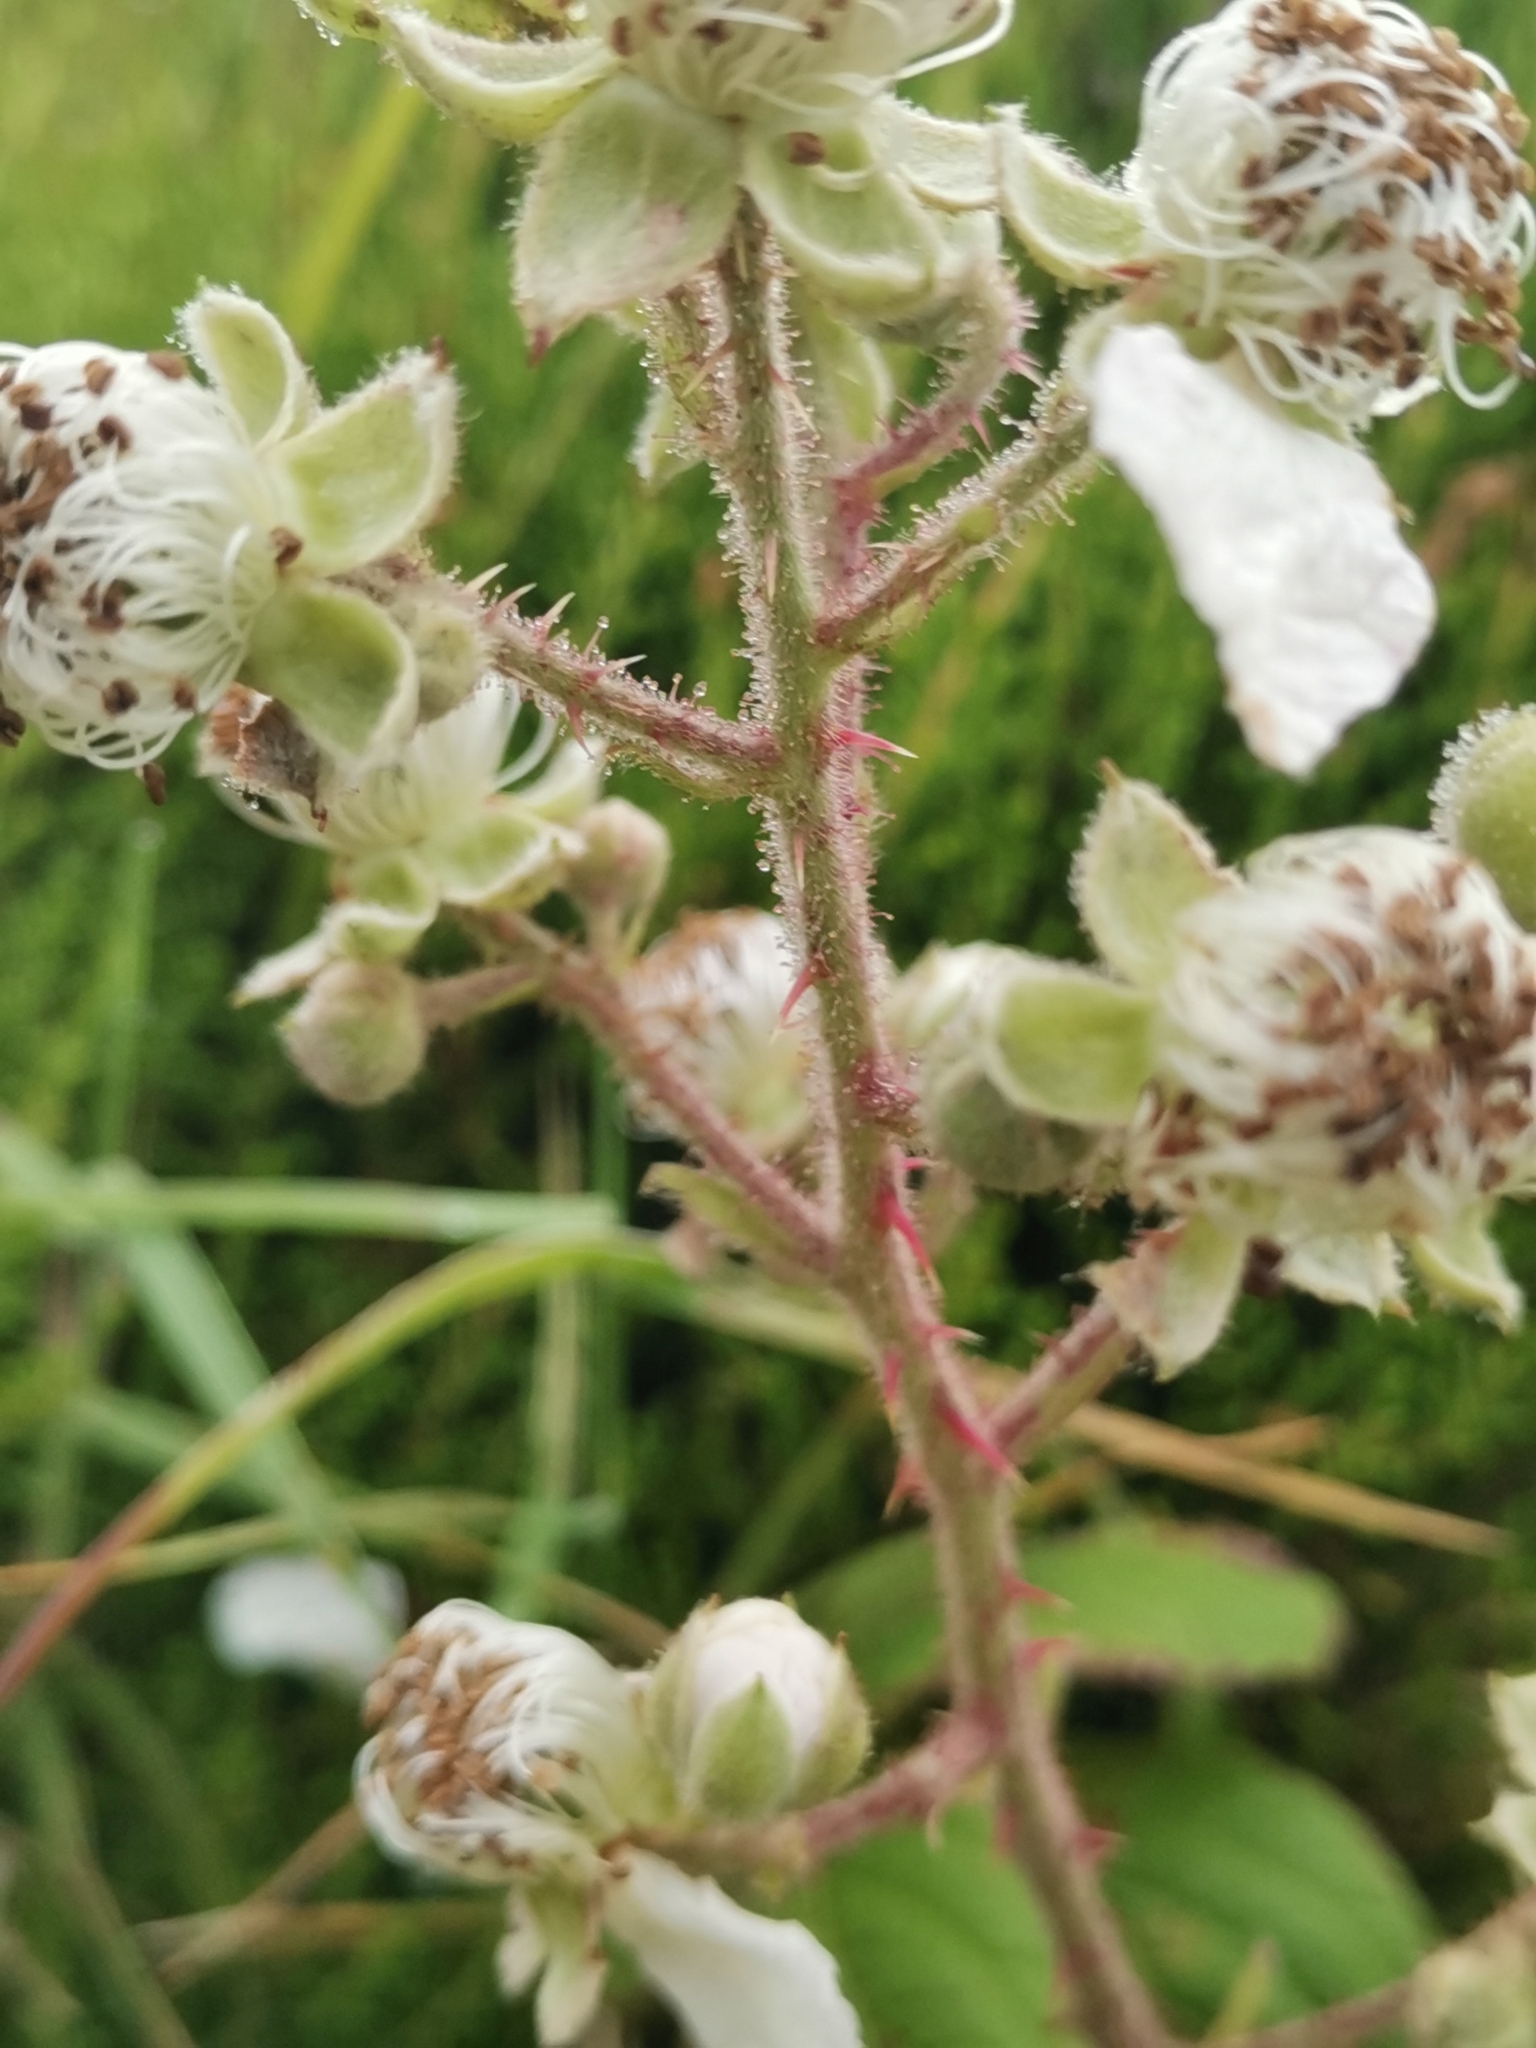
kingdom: Plantae
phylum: Tracheophyta
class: Magnoliopsida
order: Rosales
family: Rosaceae
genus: Rubus
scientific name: Rubus hochstetterorum
